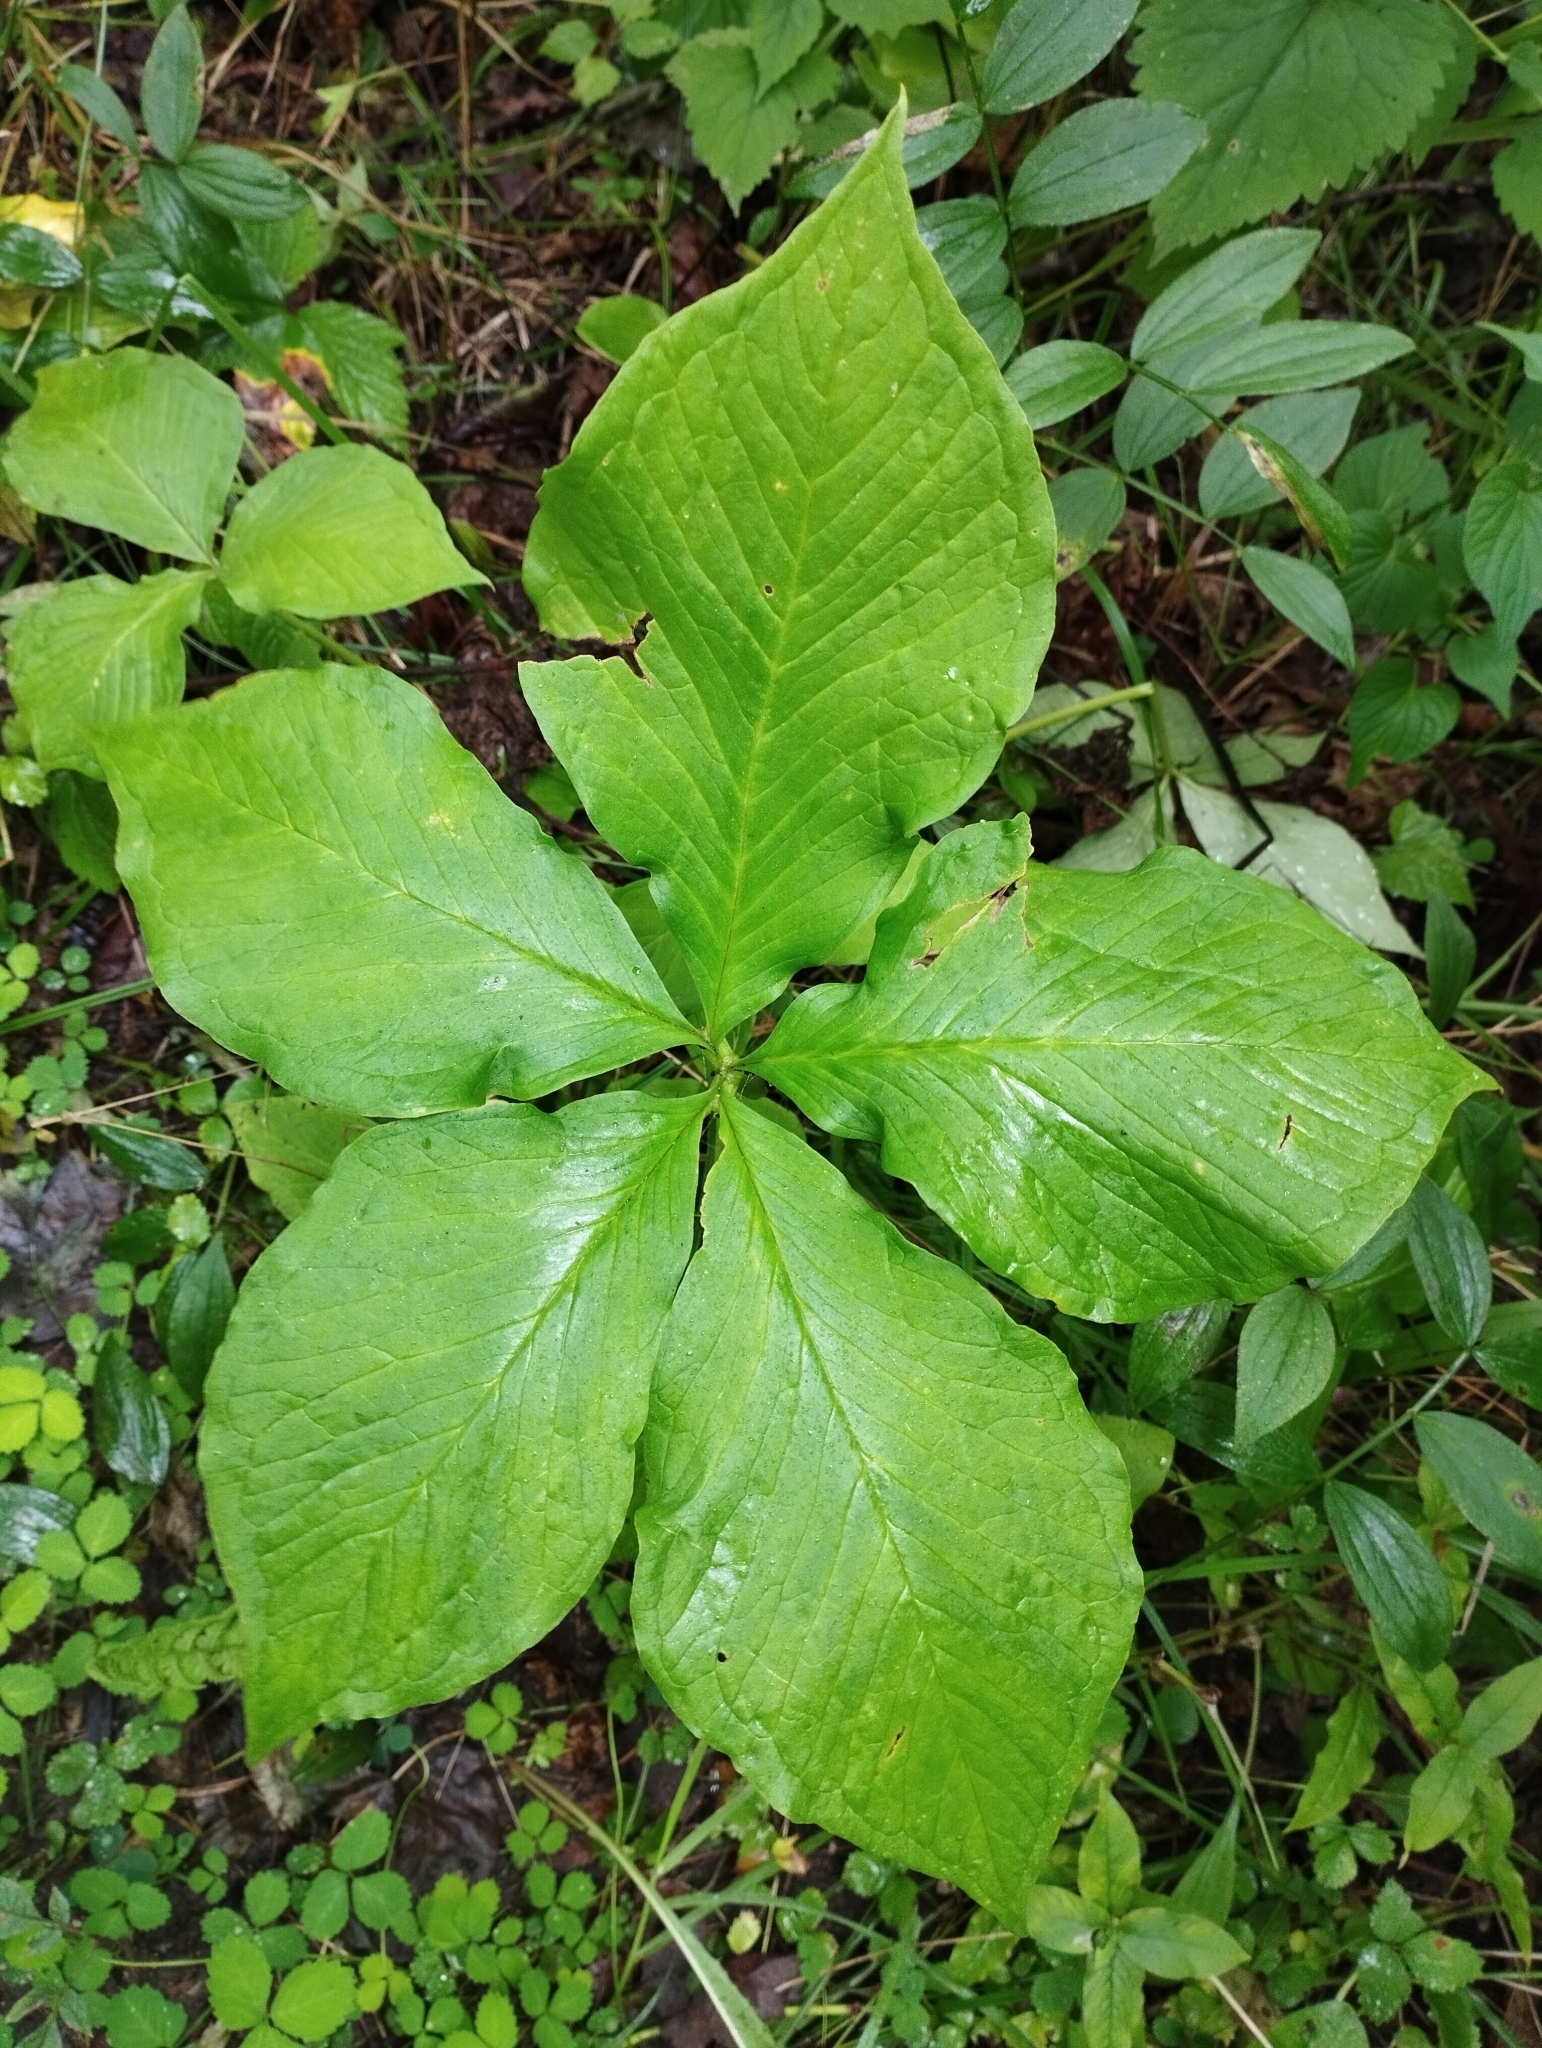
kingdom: Plantae
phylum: Tracheophyta
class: Liliopsida
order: Alismatales
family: Araceae
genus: Arisaema
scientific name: Arisaema amurense
